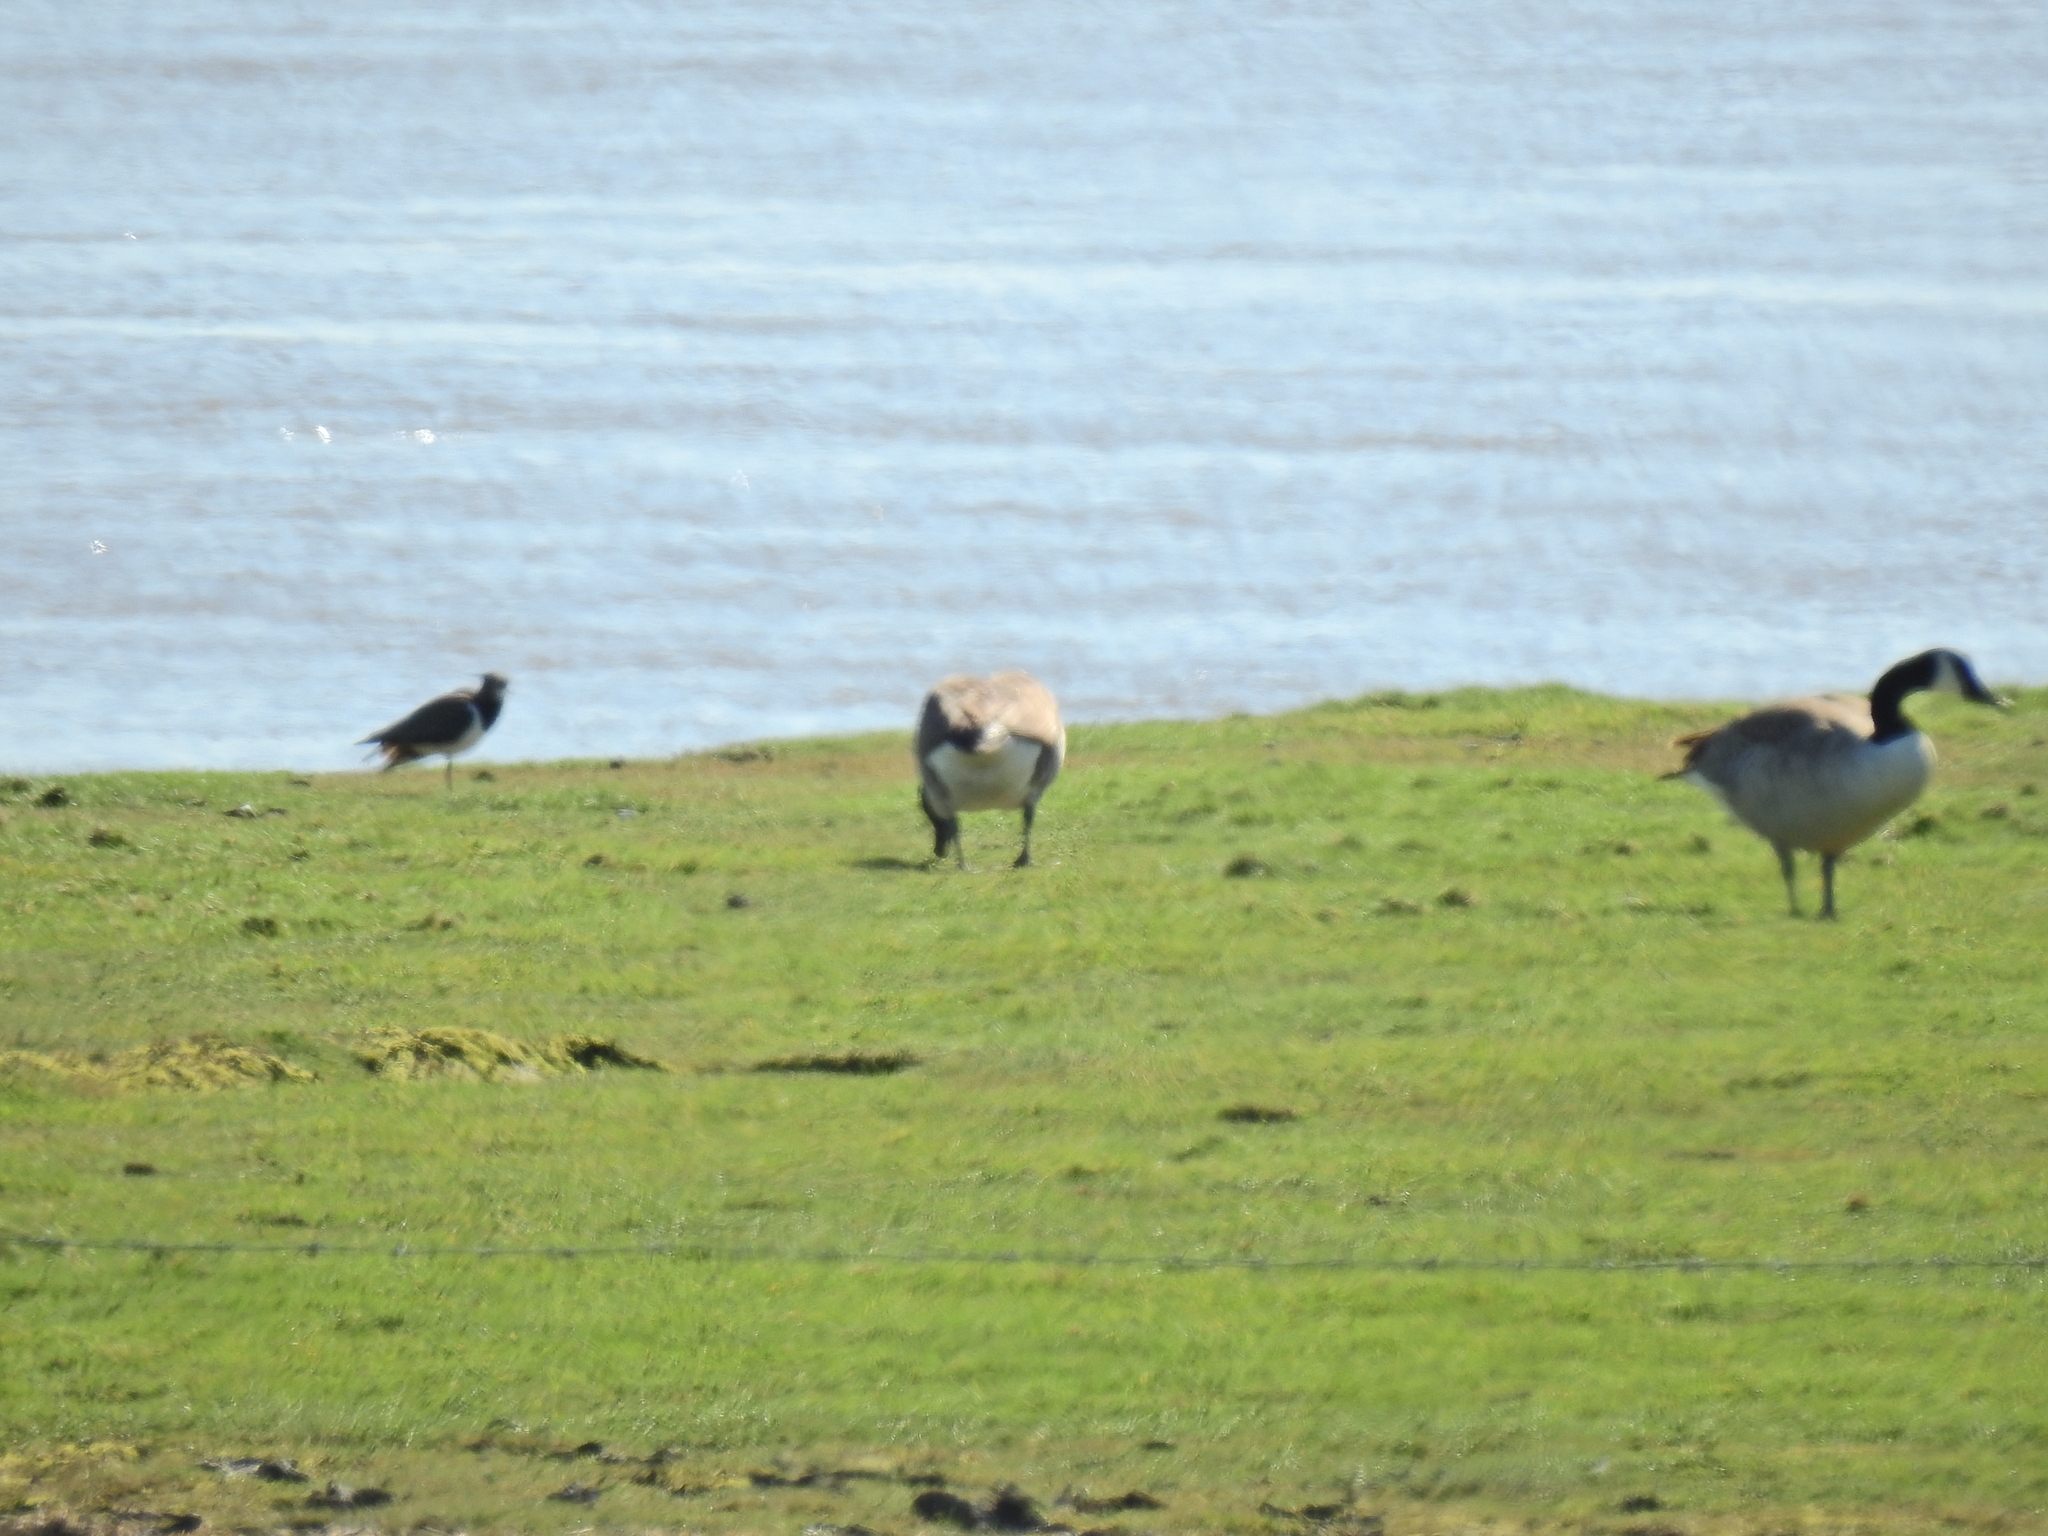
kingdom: Animalia
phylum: Chordata
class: Aves
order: Anseriformes
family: Anatidae
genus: Branta
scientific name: Branta canadensis
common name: Canada goose
